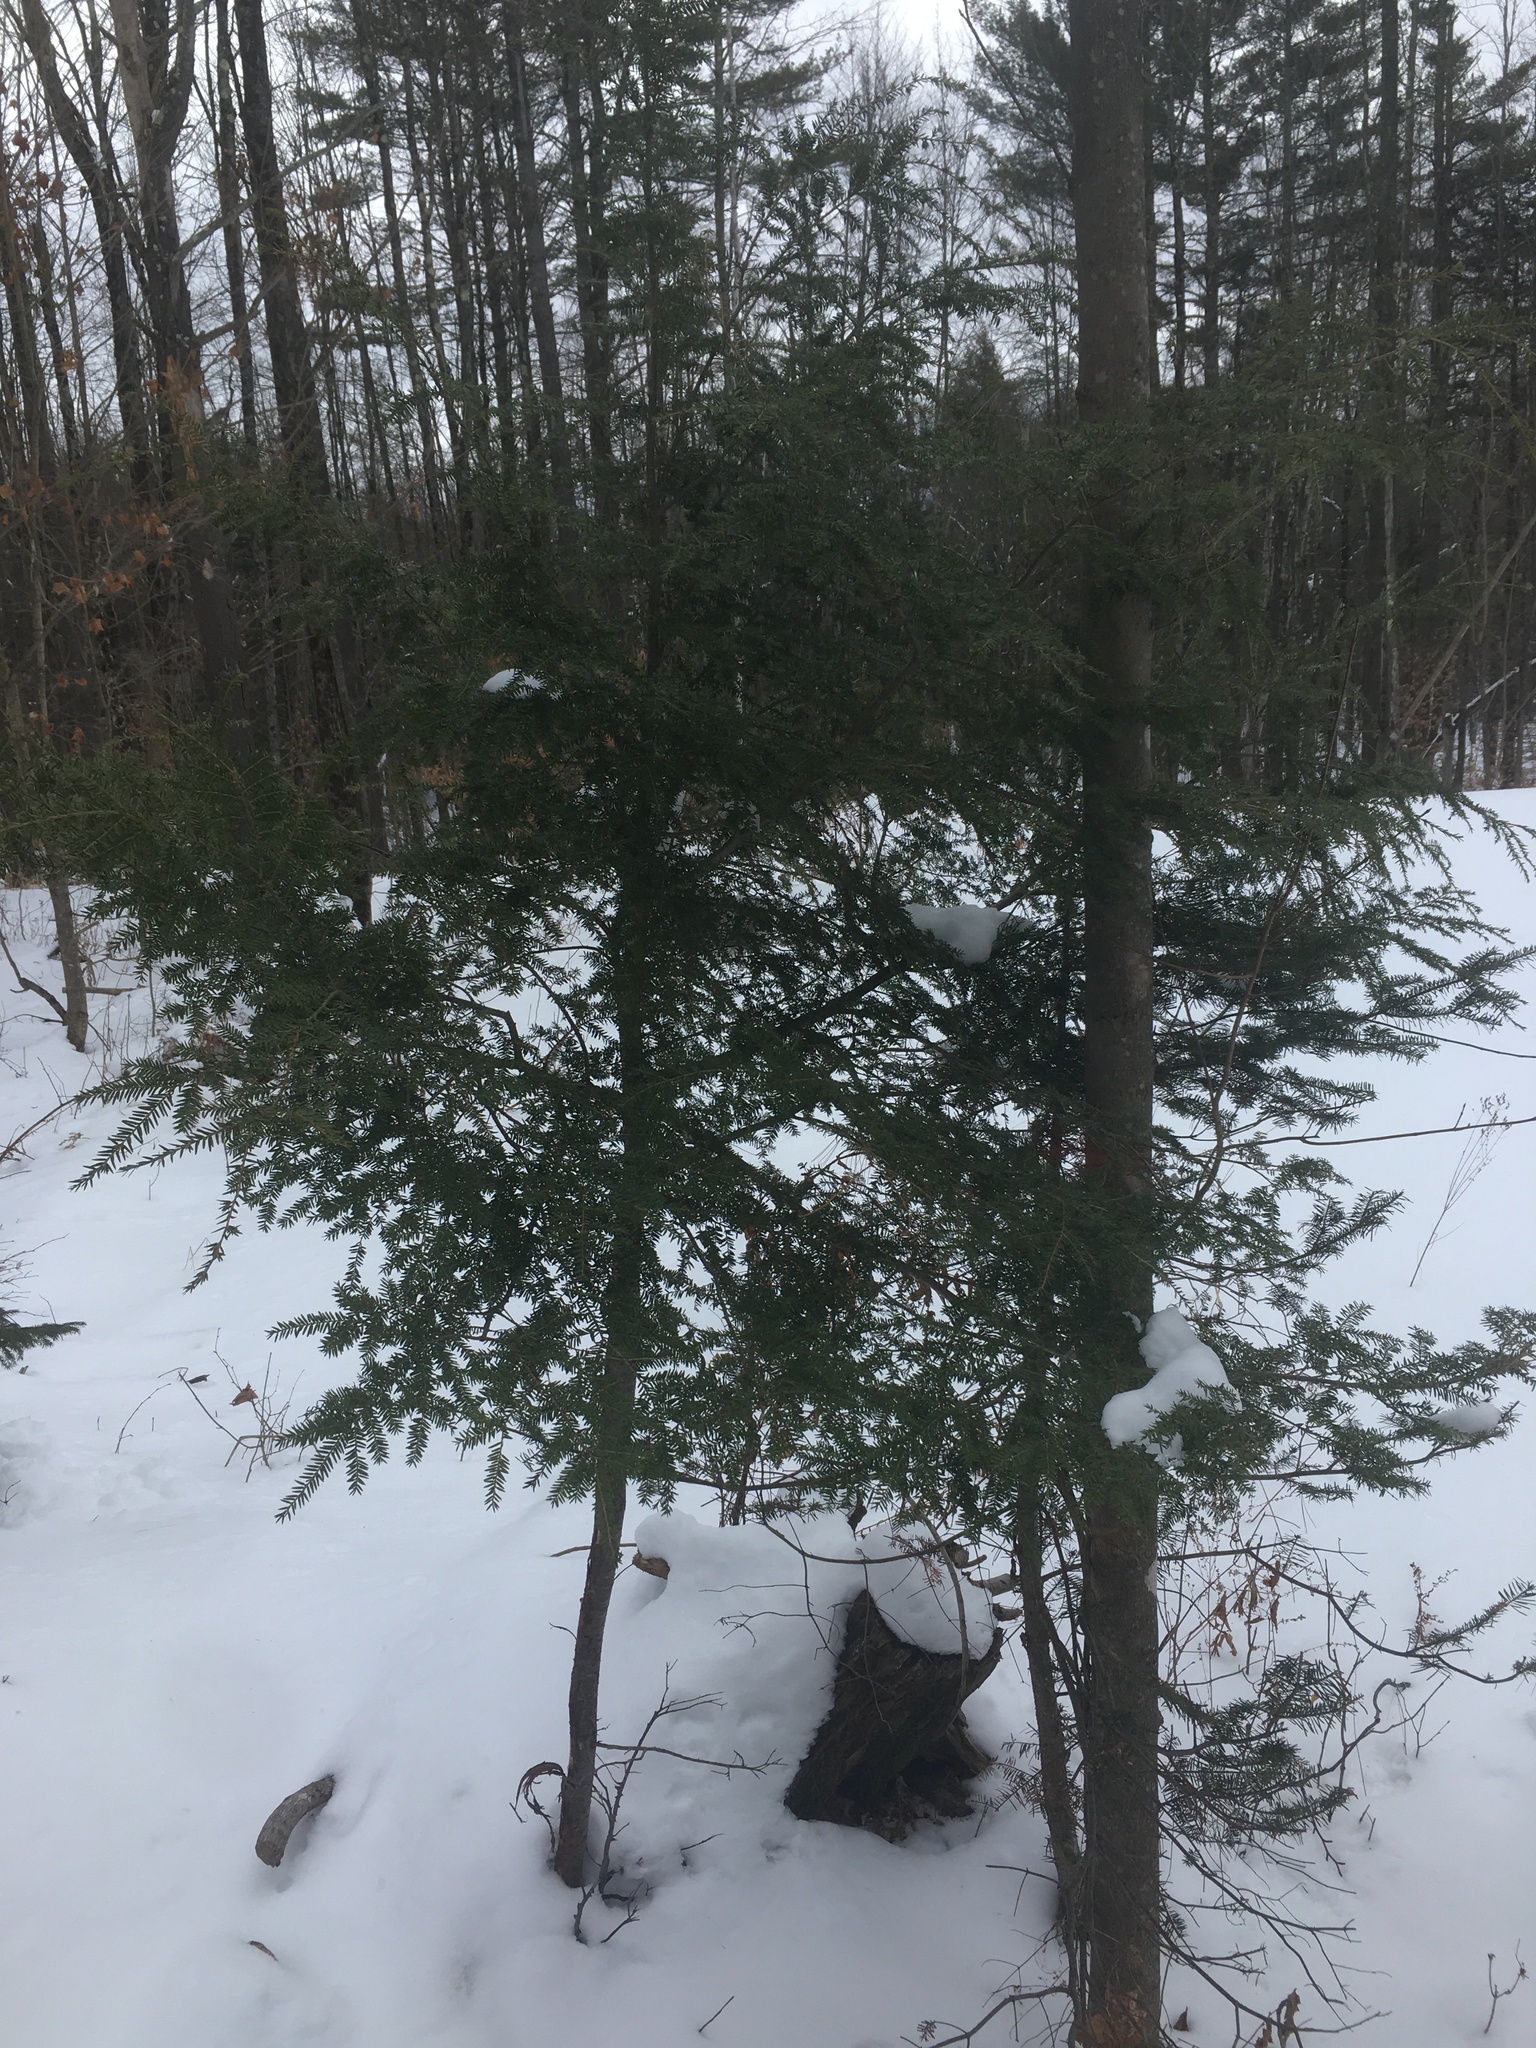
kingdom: Plantae
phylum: Tracheophyta
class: Pinopsida
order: Pinales
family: Pinaceae
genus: Tsuga
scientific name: Tsuga canadensis
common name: Eastern hemlock
